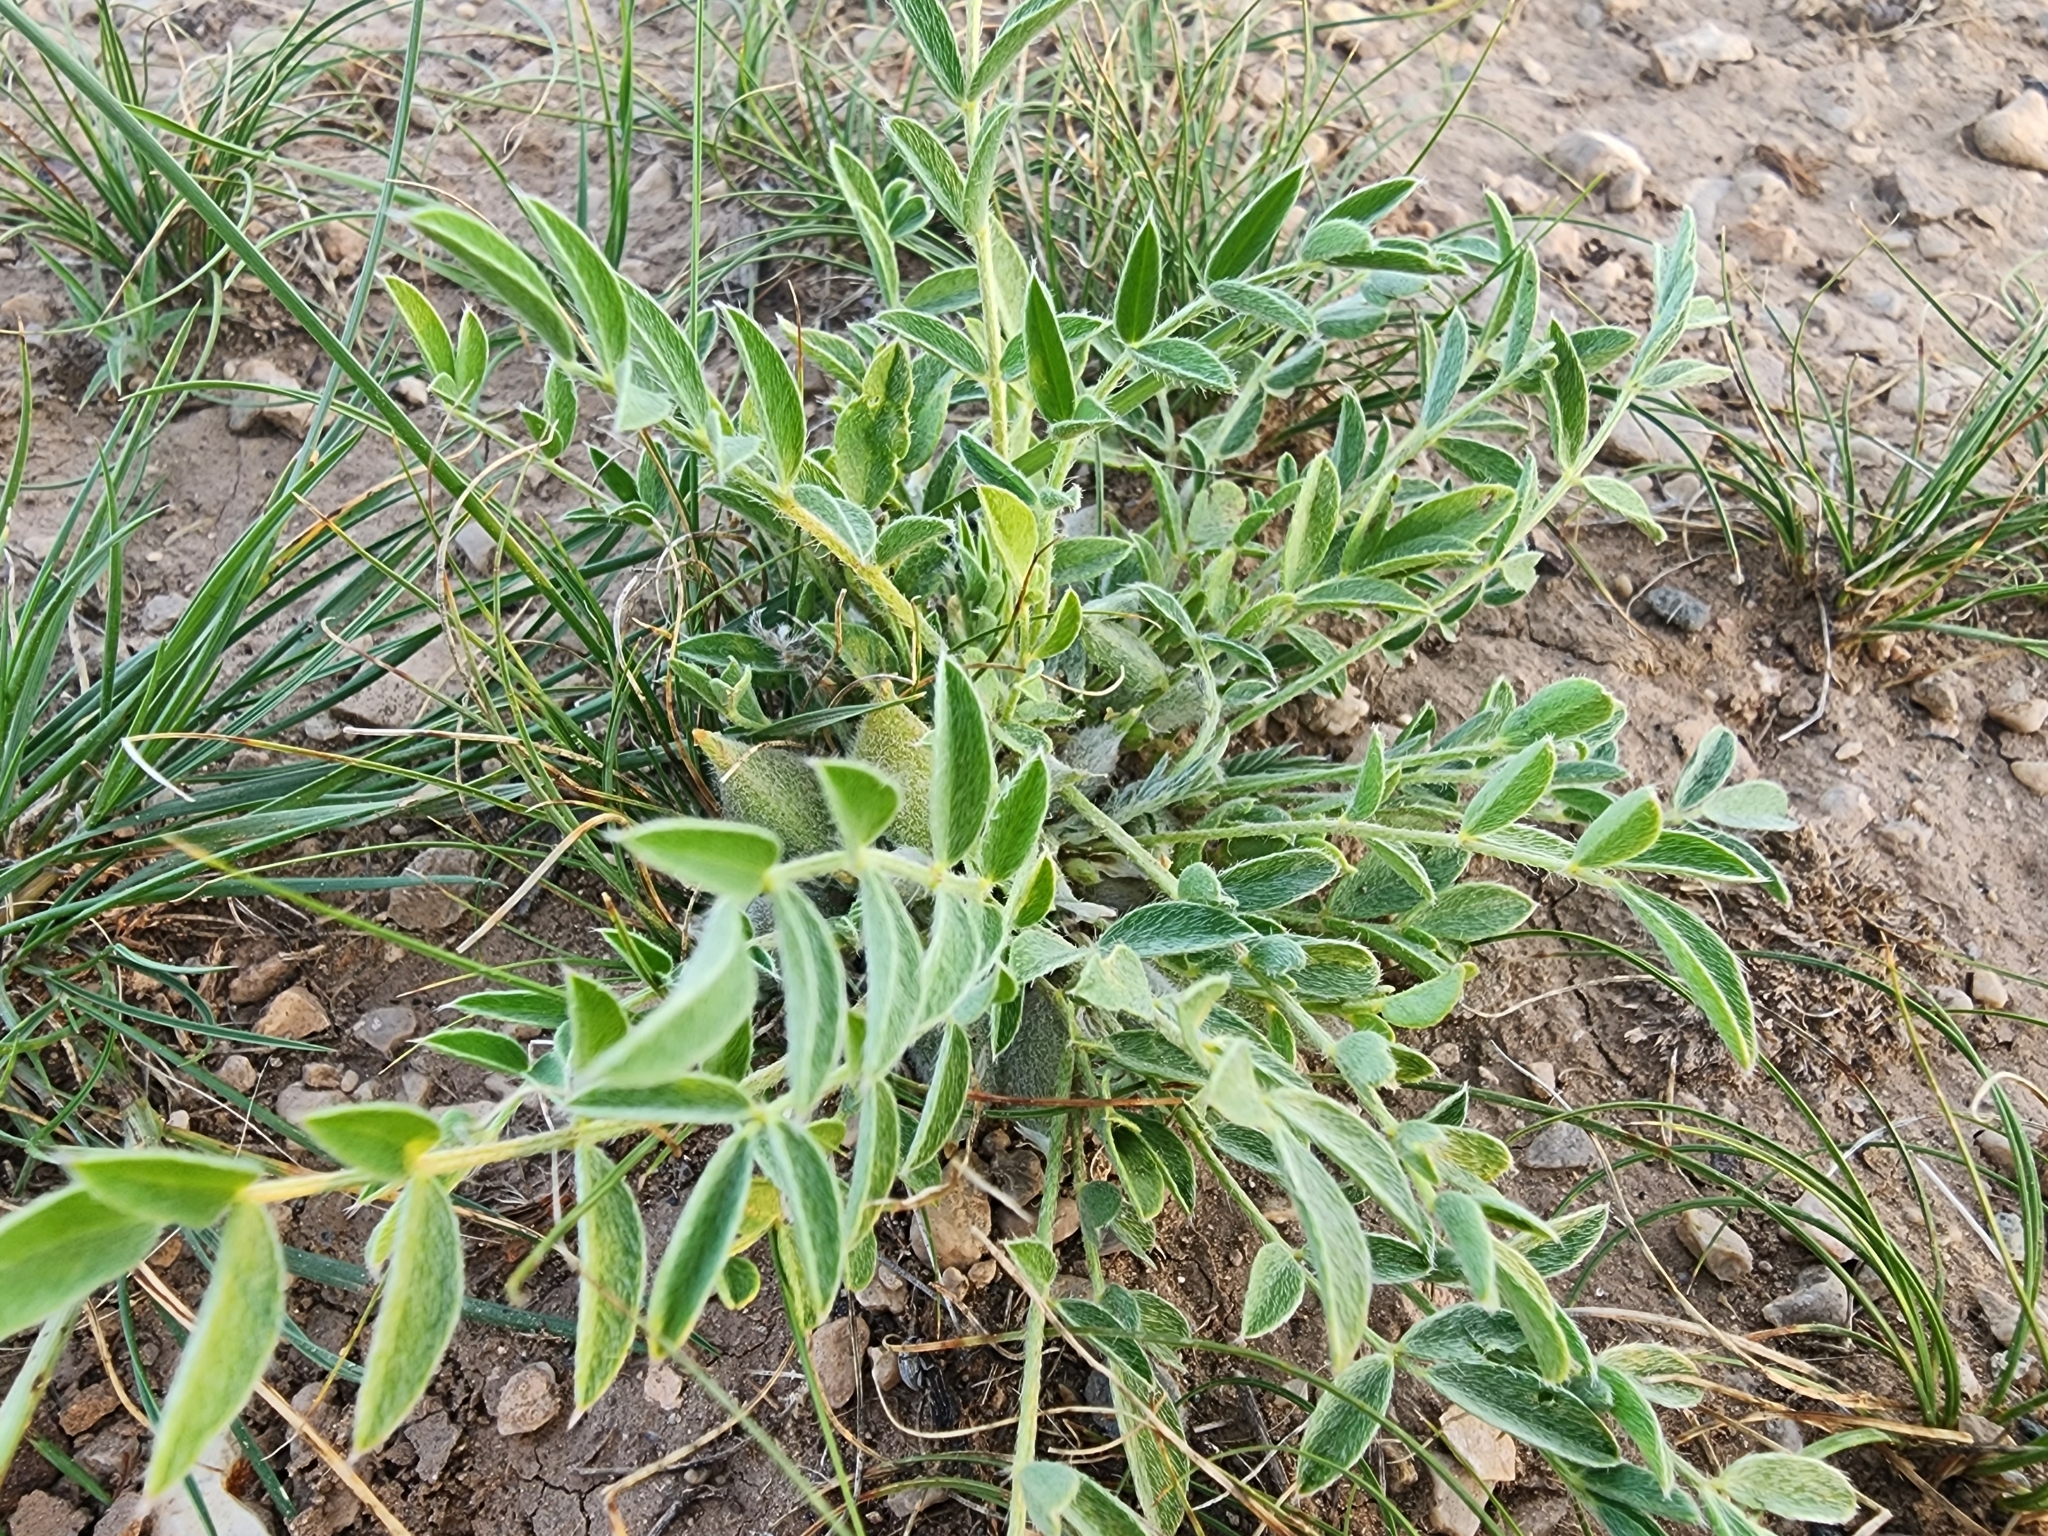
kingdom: Plantae
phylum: Tracheophyta
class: Magnoliopsida
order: Fabales
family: Fabaceae
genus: Astragalus
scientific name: Astragalus lotiflorus
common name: Lotus milk-vetch
